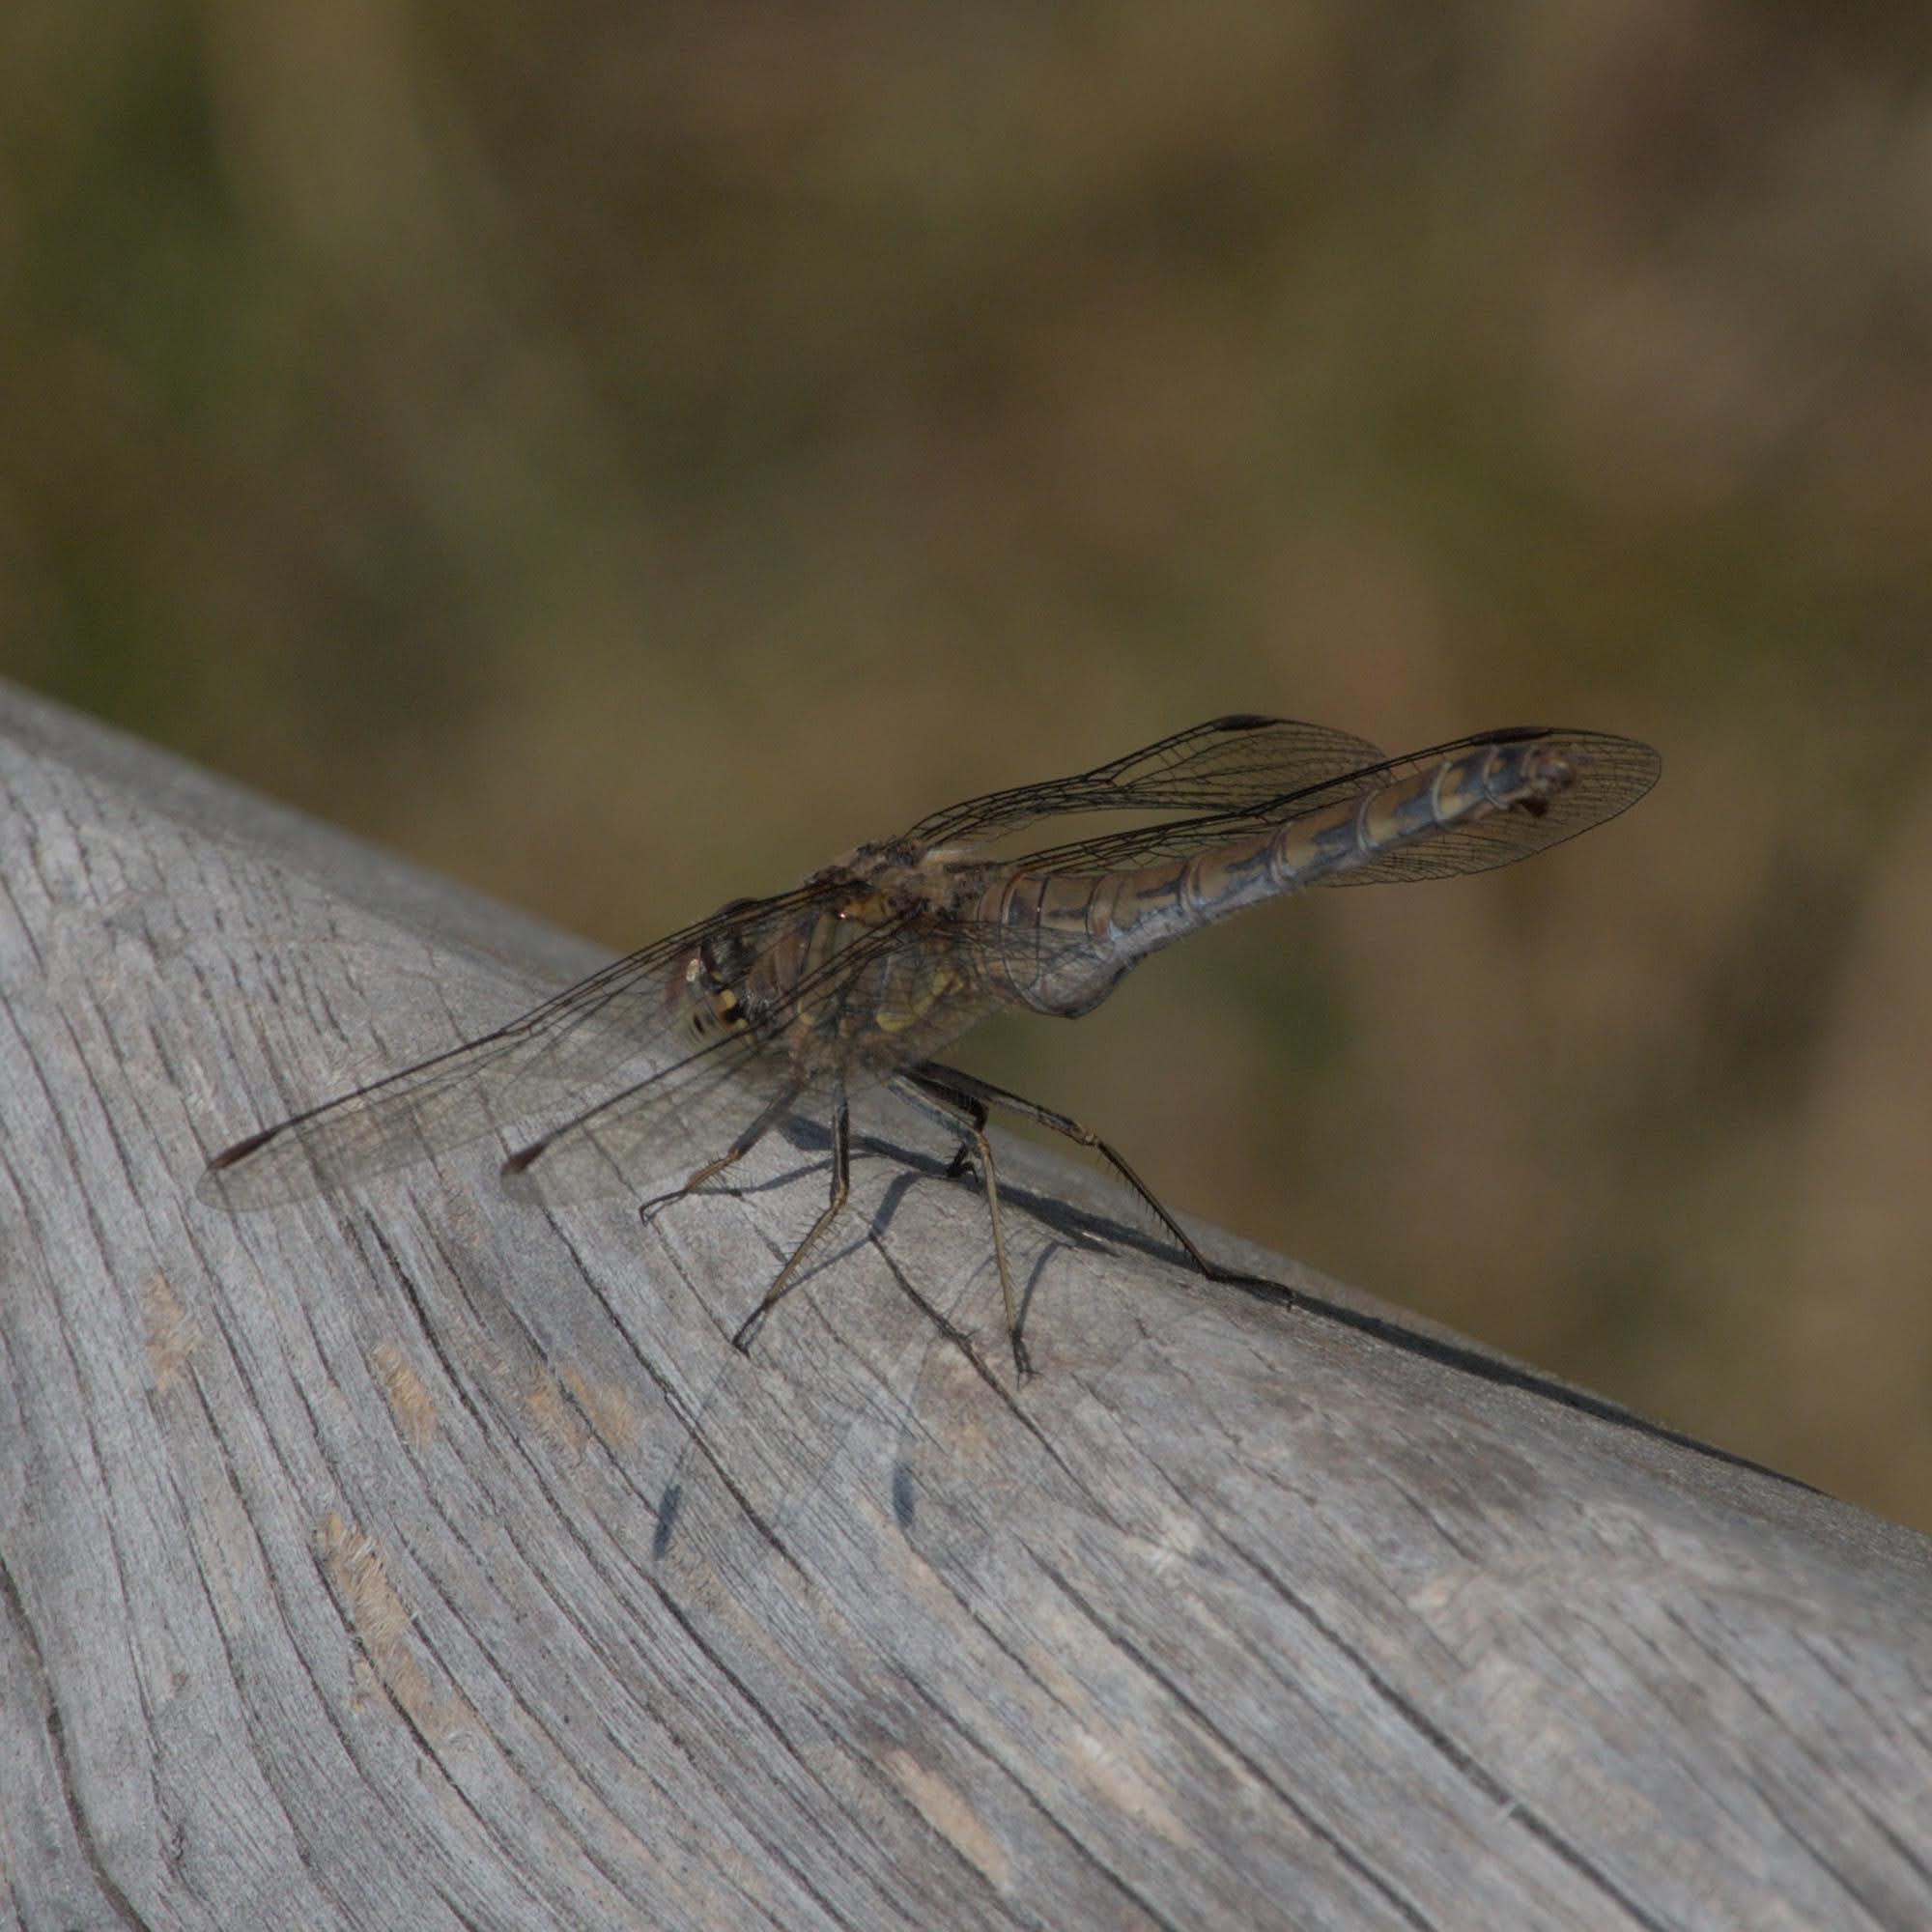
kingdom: Animalia
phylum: Arthropoda
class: Insecta
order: Odonata
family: Libellulidae
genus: Sympetrum
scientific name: Sympetrum striolatum
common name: Common darter
